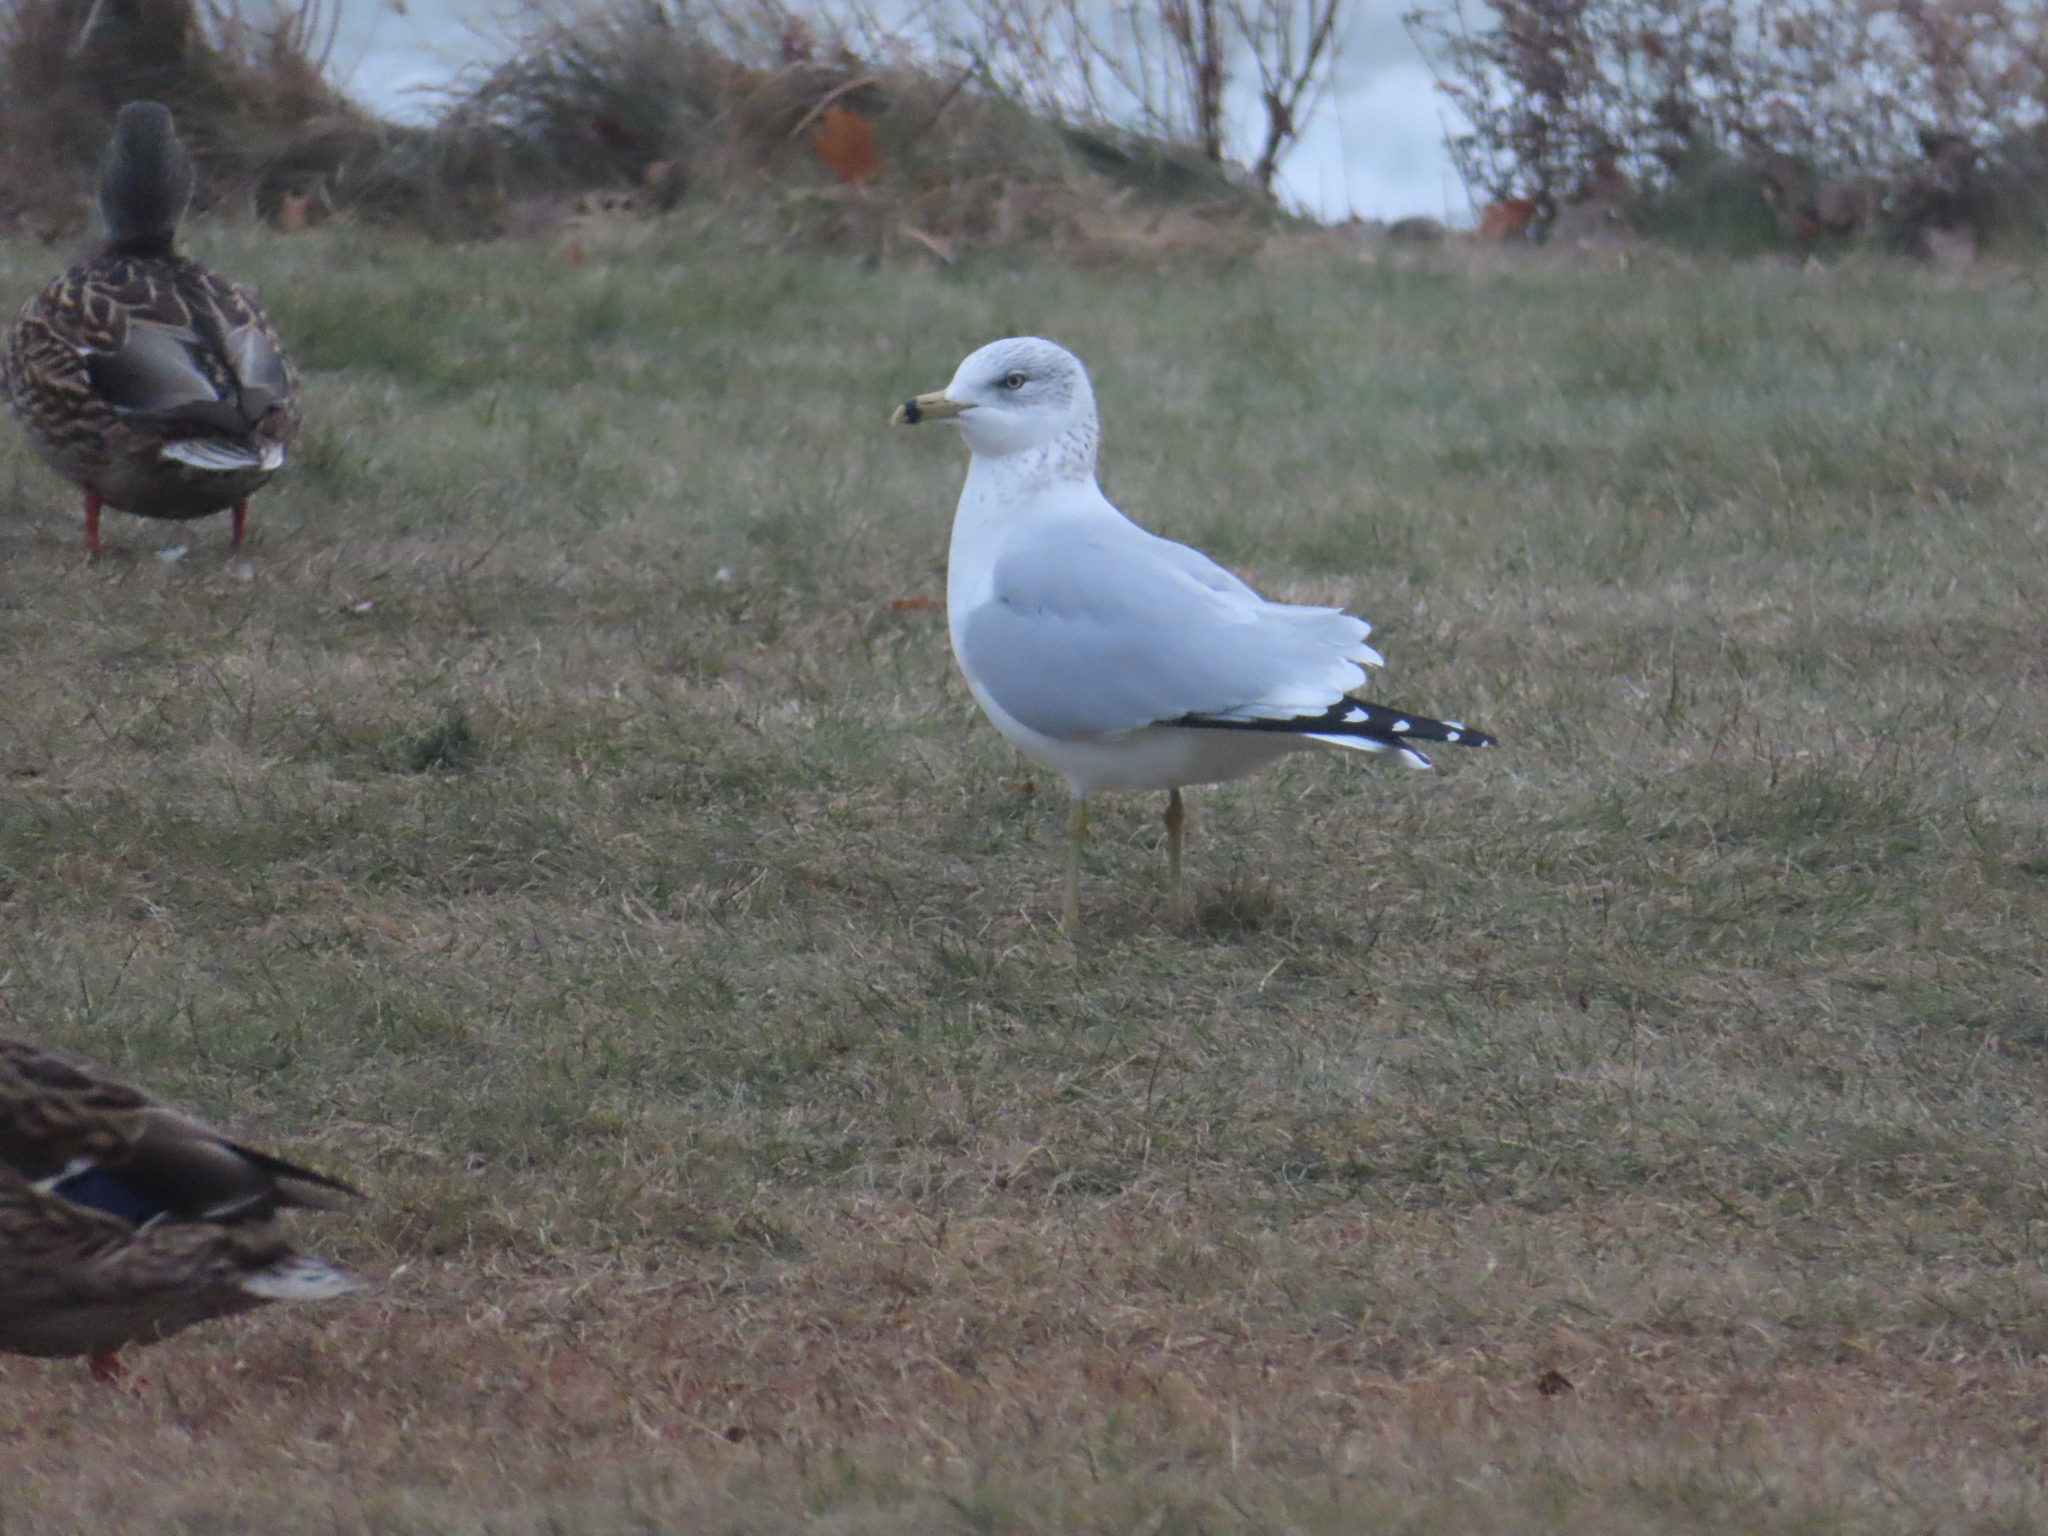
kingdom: Animalia
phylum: Chordata
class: Aves
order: Charadriiformes
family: Laridae
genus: Larus
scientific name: Larus delawarensis
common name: Ring-billed gull
